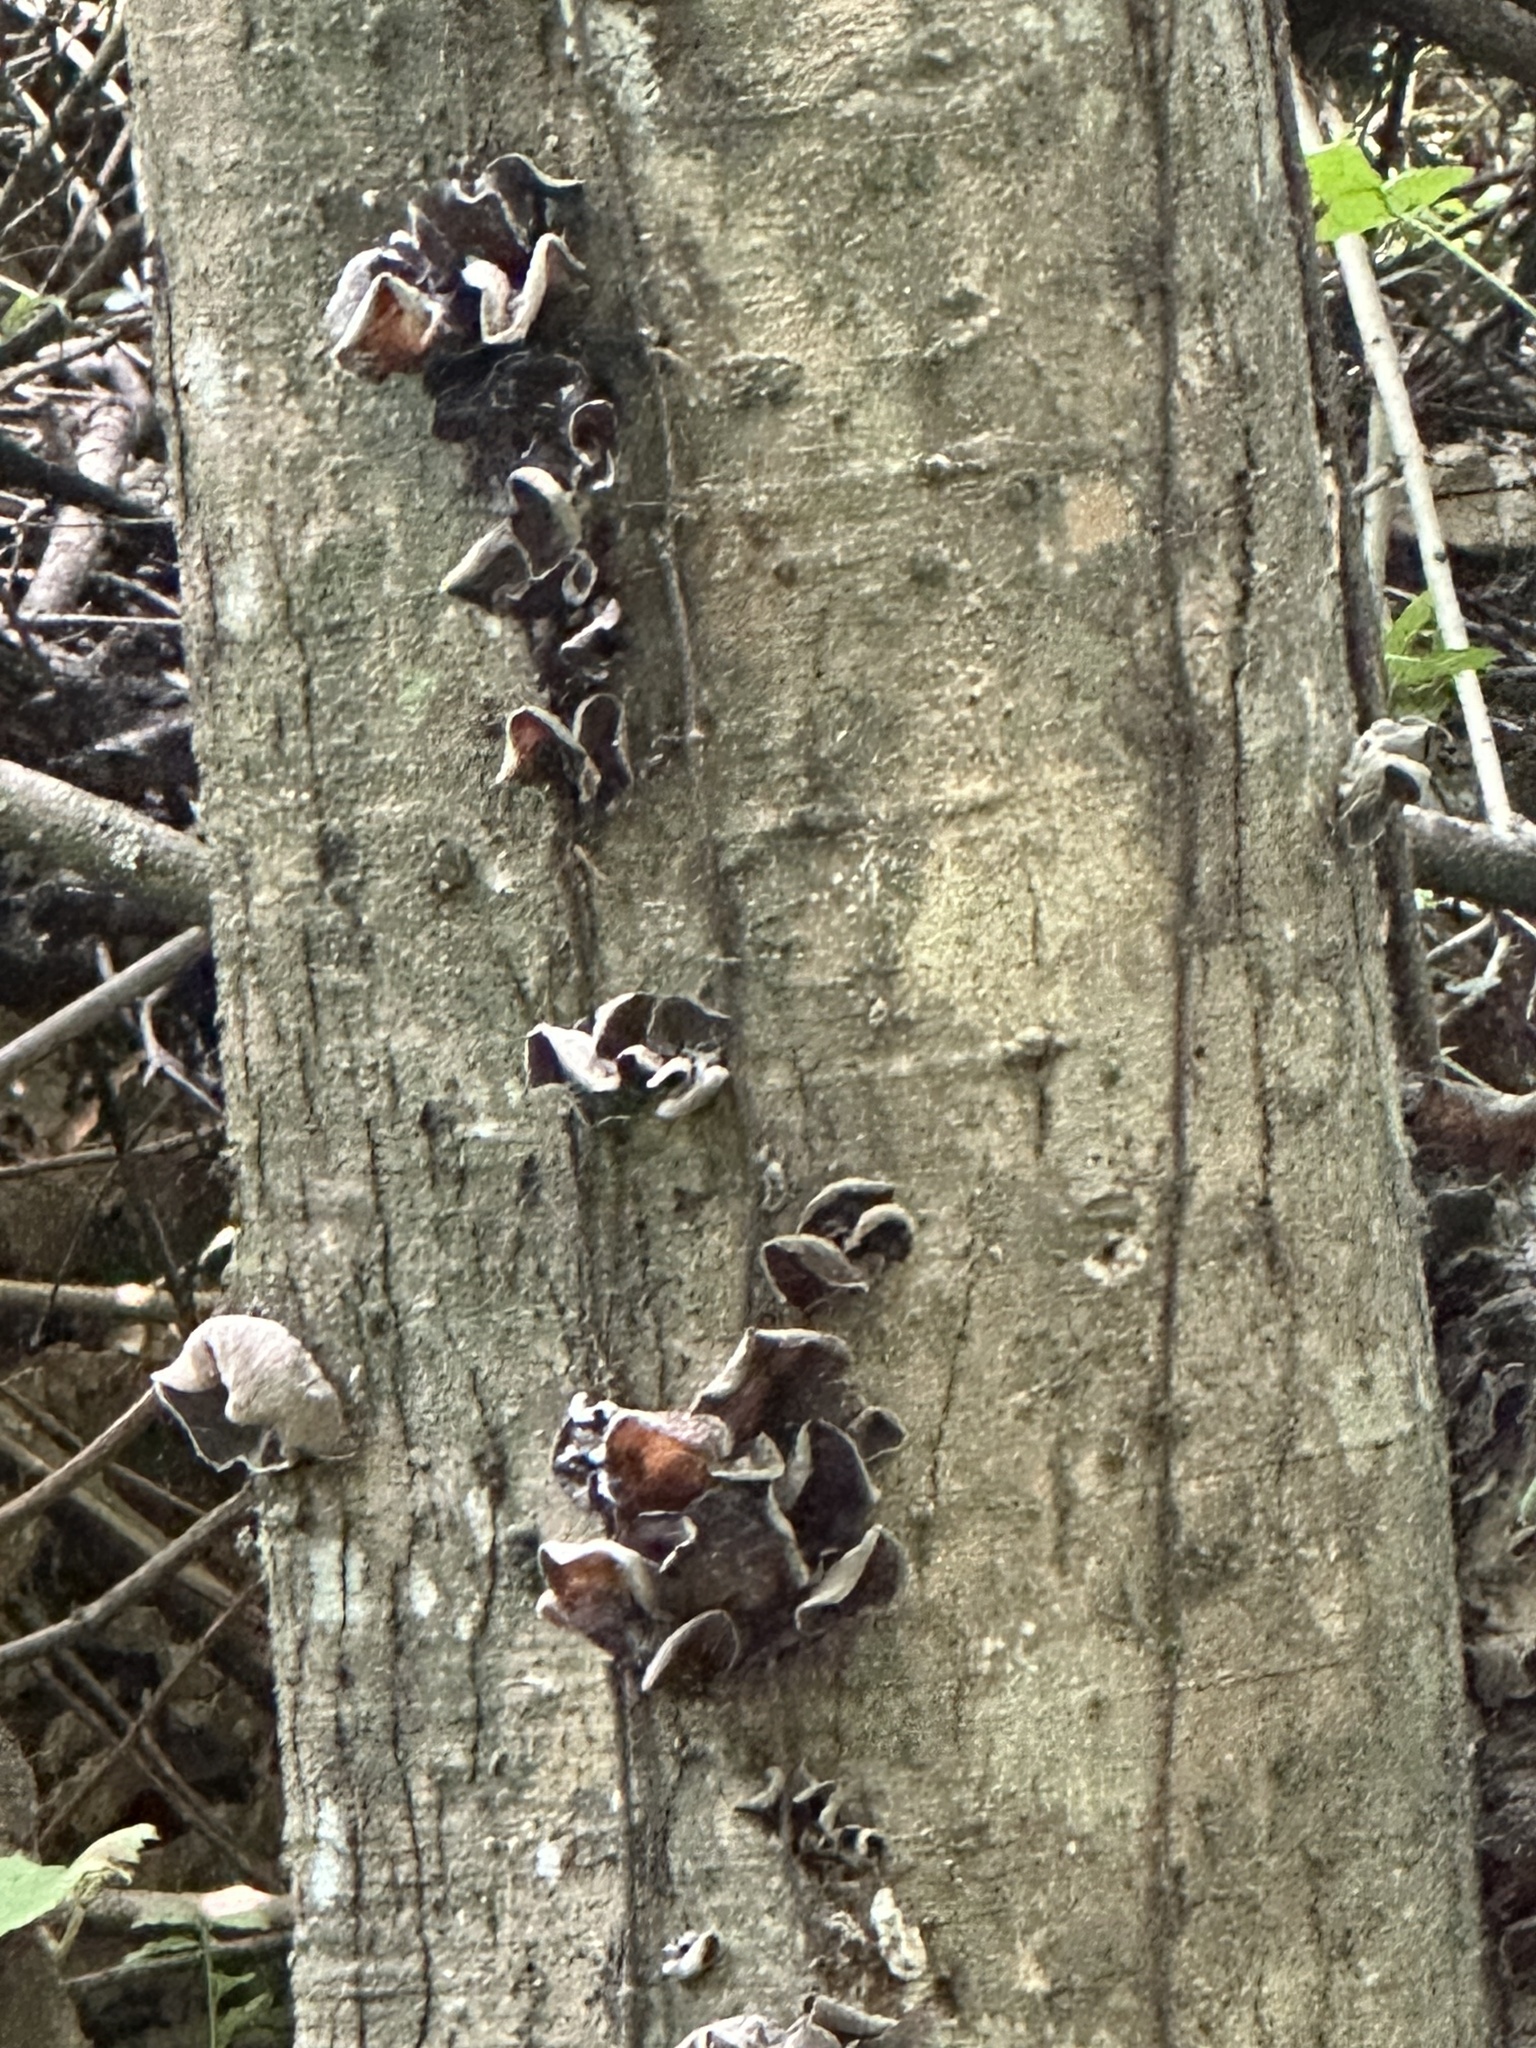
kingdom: Fungi
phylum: Basidiomycota
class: Agaricomycetes
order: Auriculariales
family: Auriculariaceae
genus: Auricularia
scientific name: Auricularia nigricans
